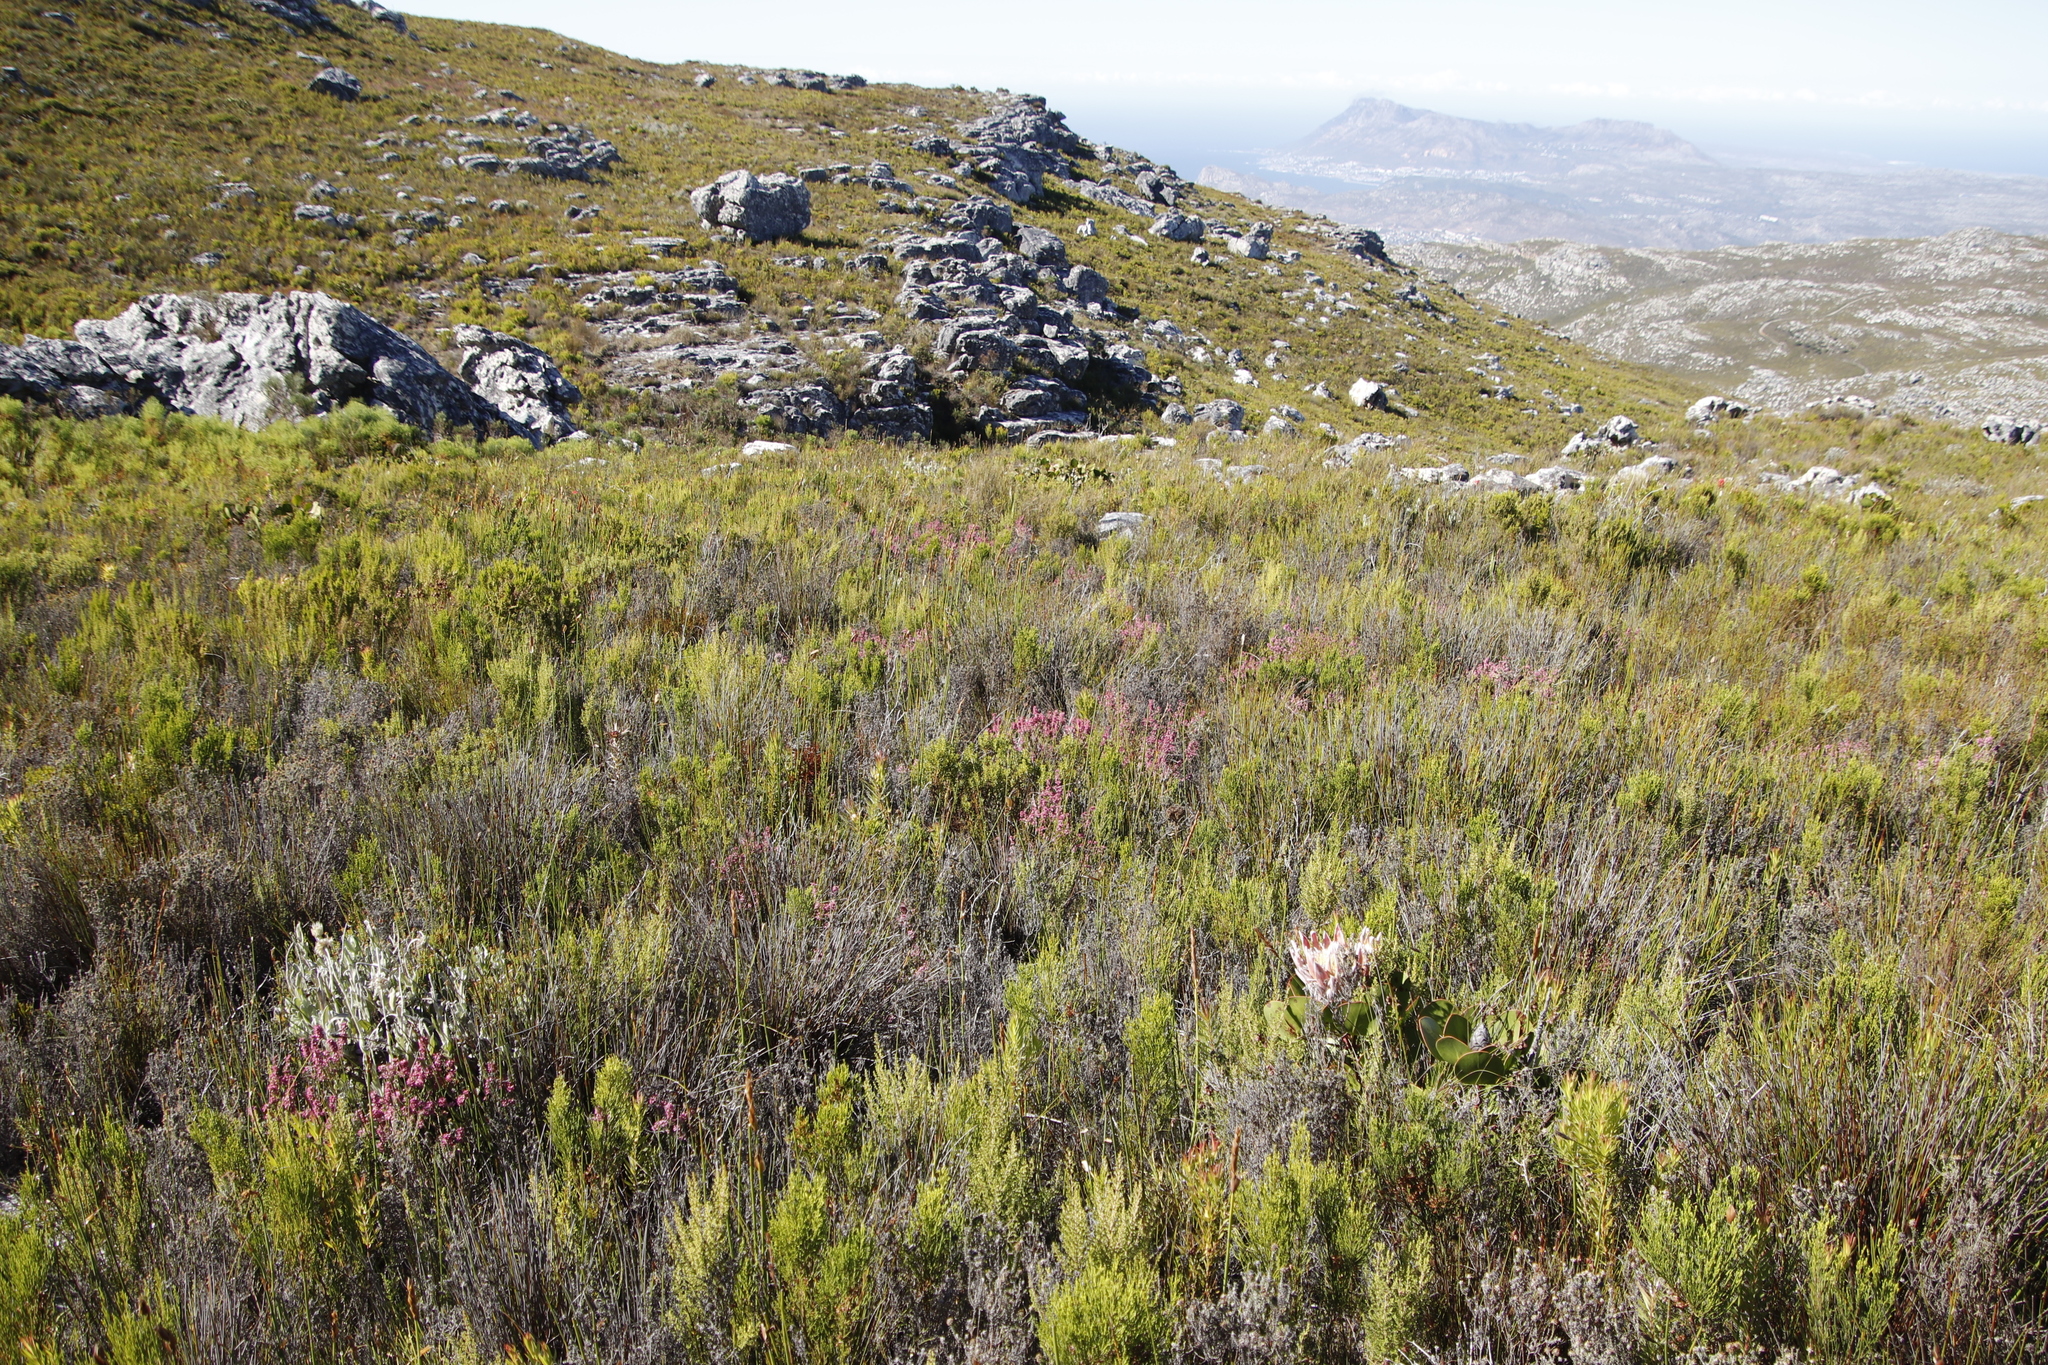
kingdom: Plantae
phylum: Tracheophyta
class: Magnoliopsida
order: Ericales
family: Ericaceae
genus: Erica
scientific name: Erica corifolia
